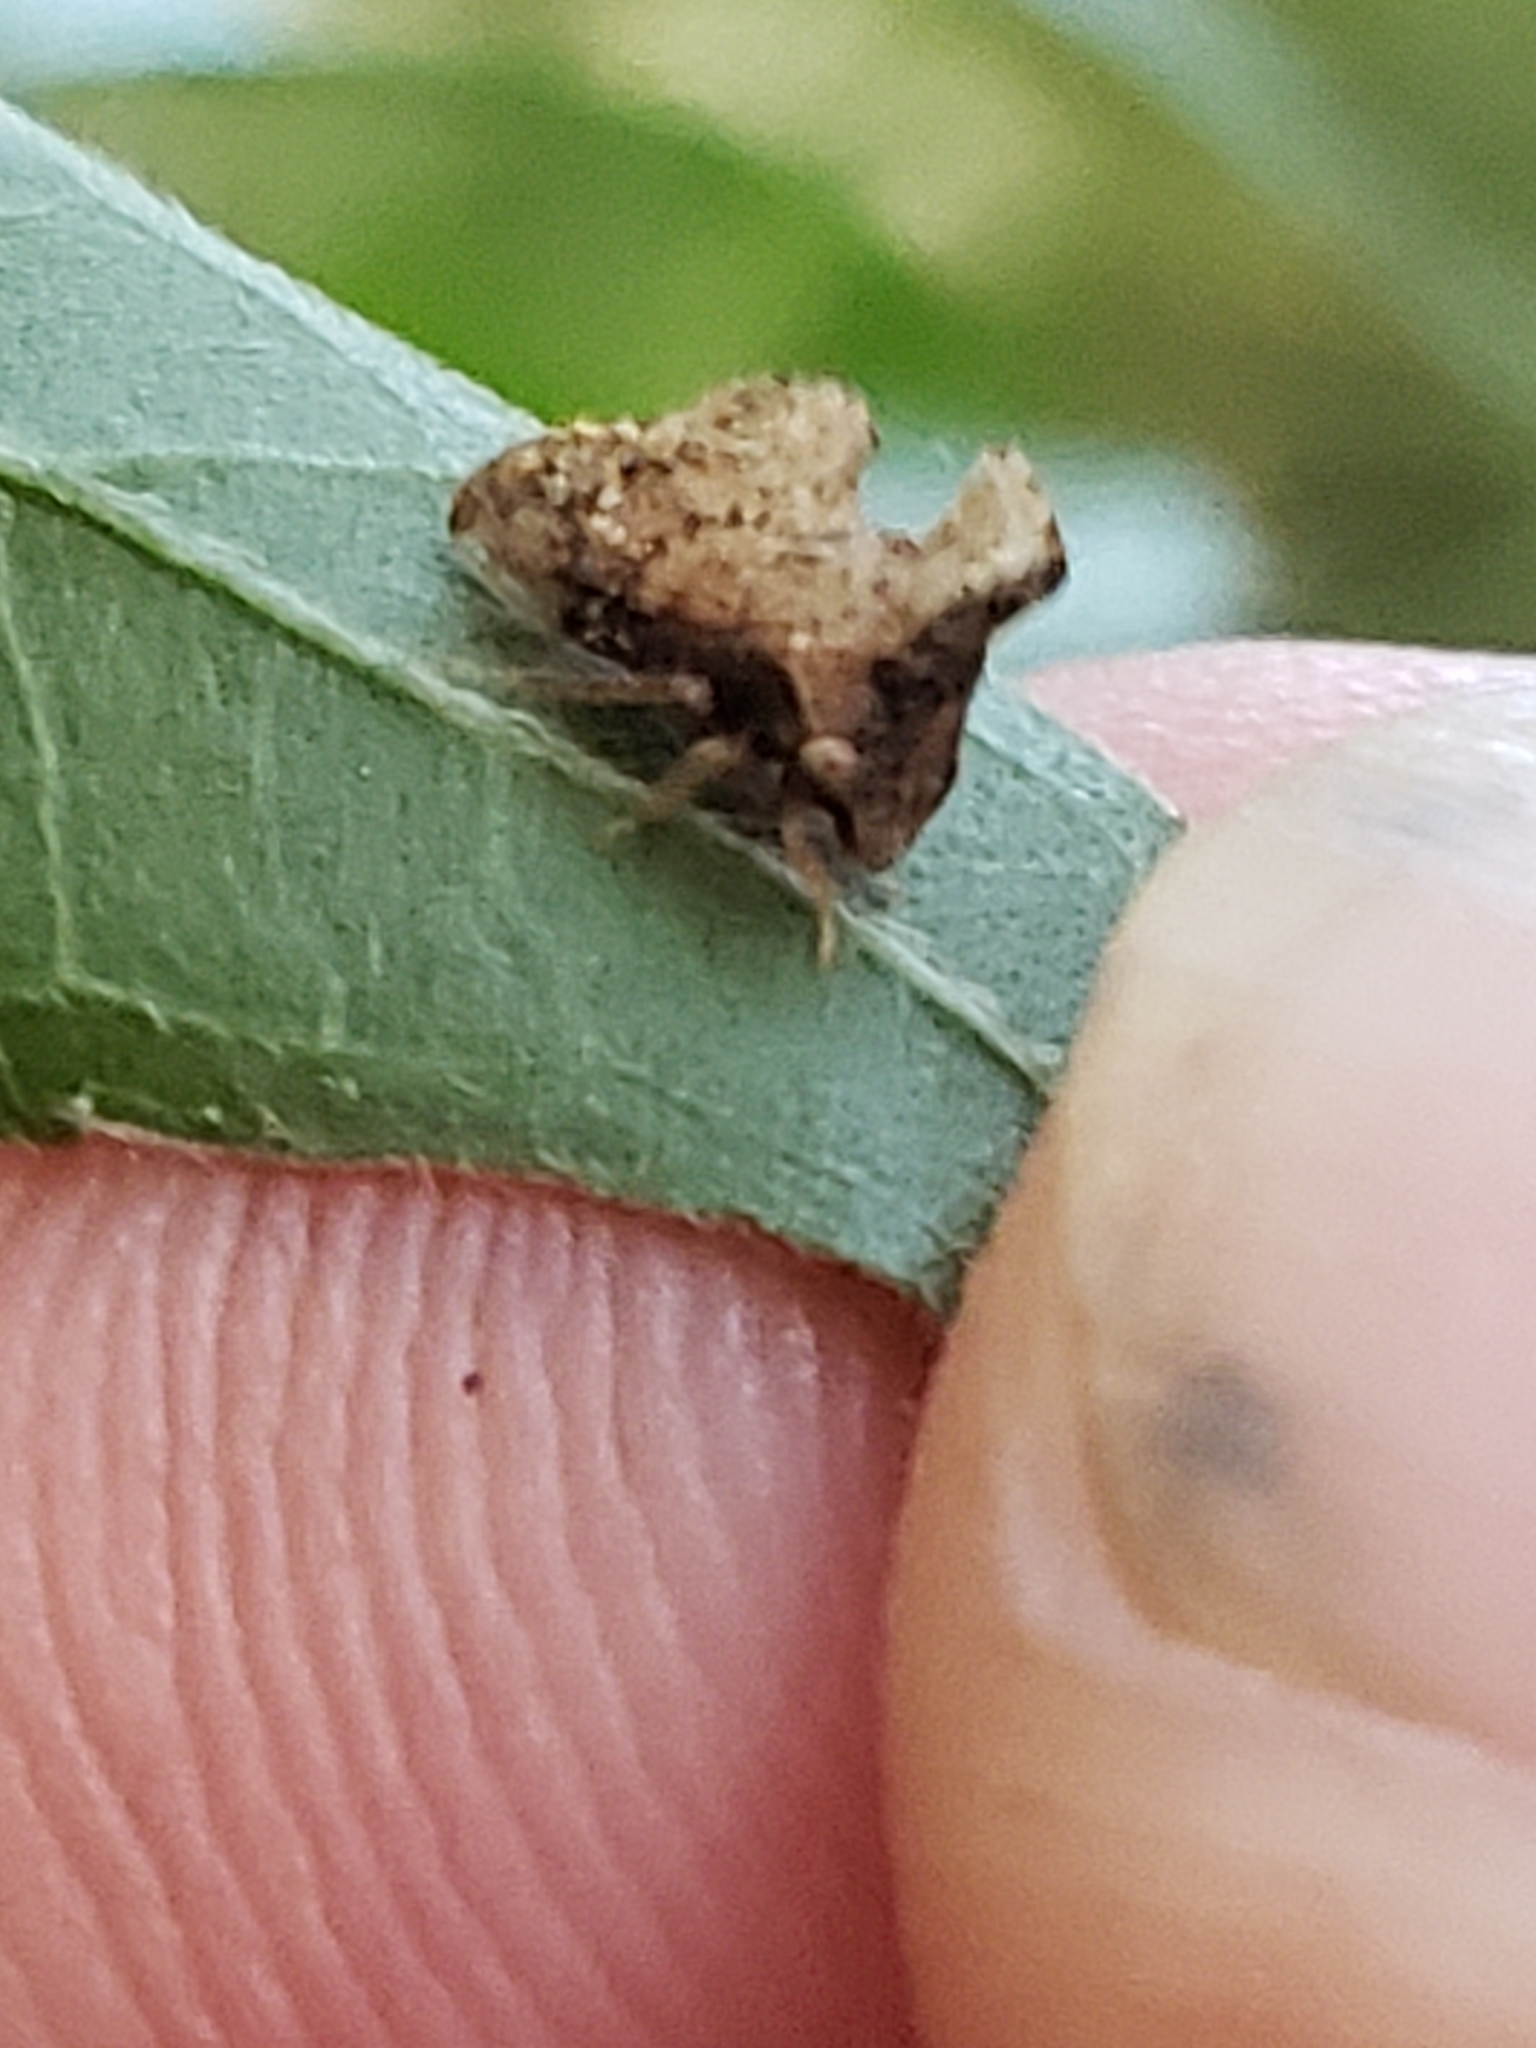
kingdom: Animalia
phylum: Arthropoda
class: Insecta
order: Hemiptera
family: Membracidae
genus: Entylia
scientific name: Entylia carinata
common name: Keeled treehopper
